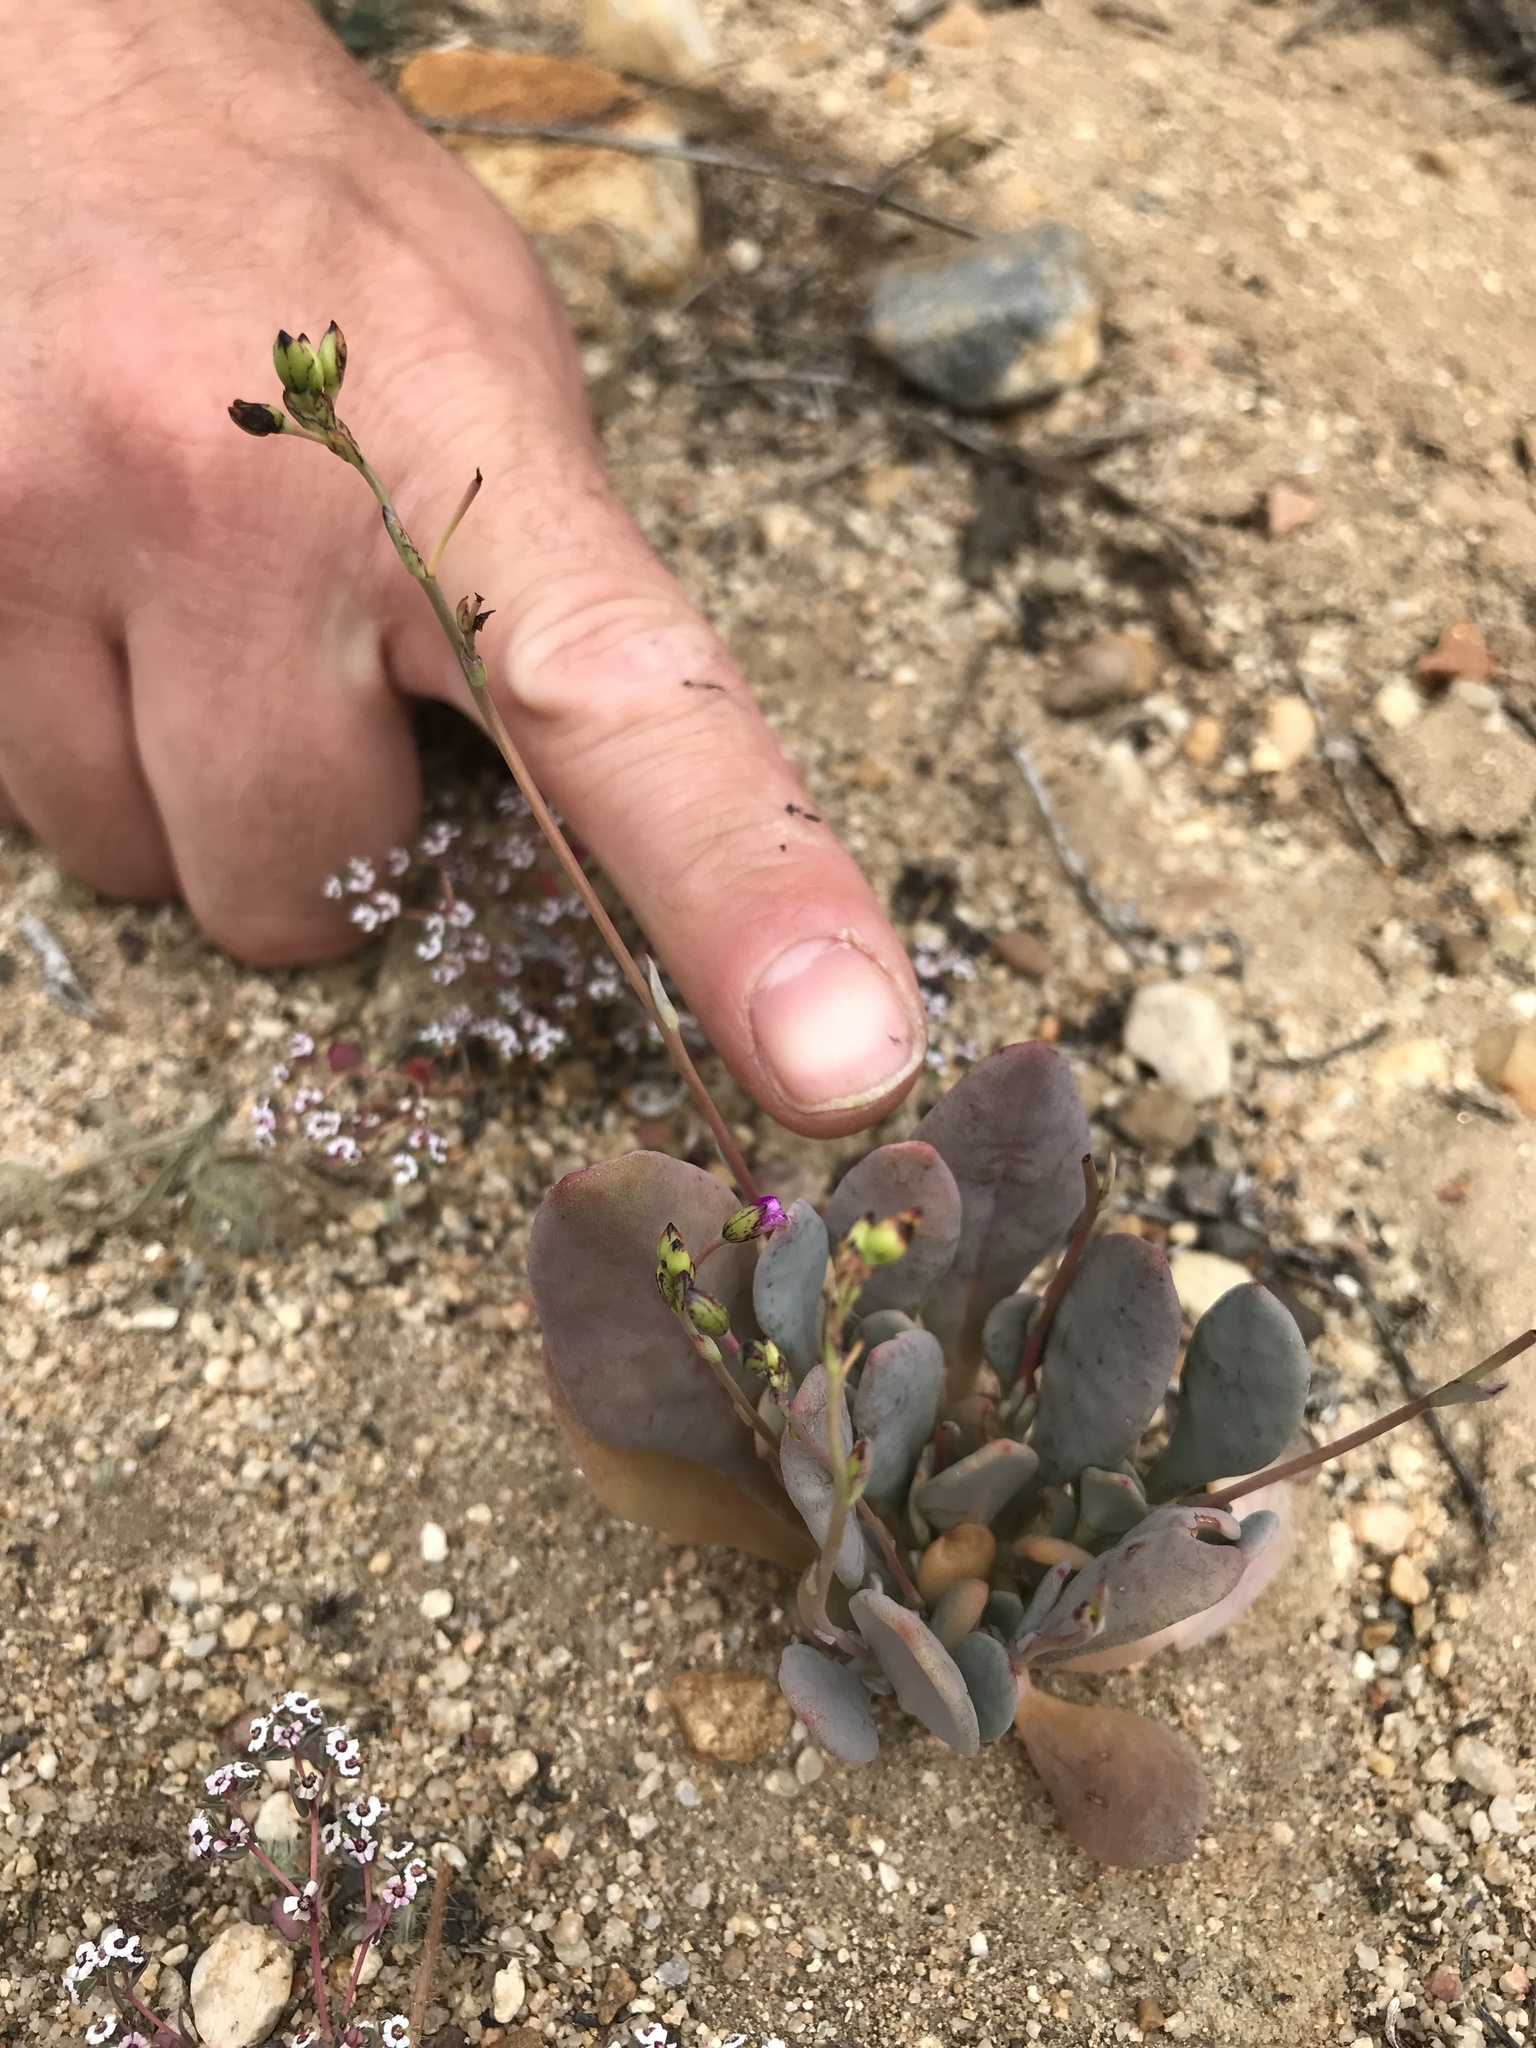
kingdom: Plantae
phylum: Tracheophyta
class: Magnoliopsida
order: Caryophyllales
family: Montiaceae
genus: Cistanthe
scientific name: Cistanthe maritima
